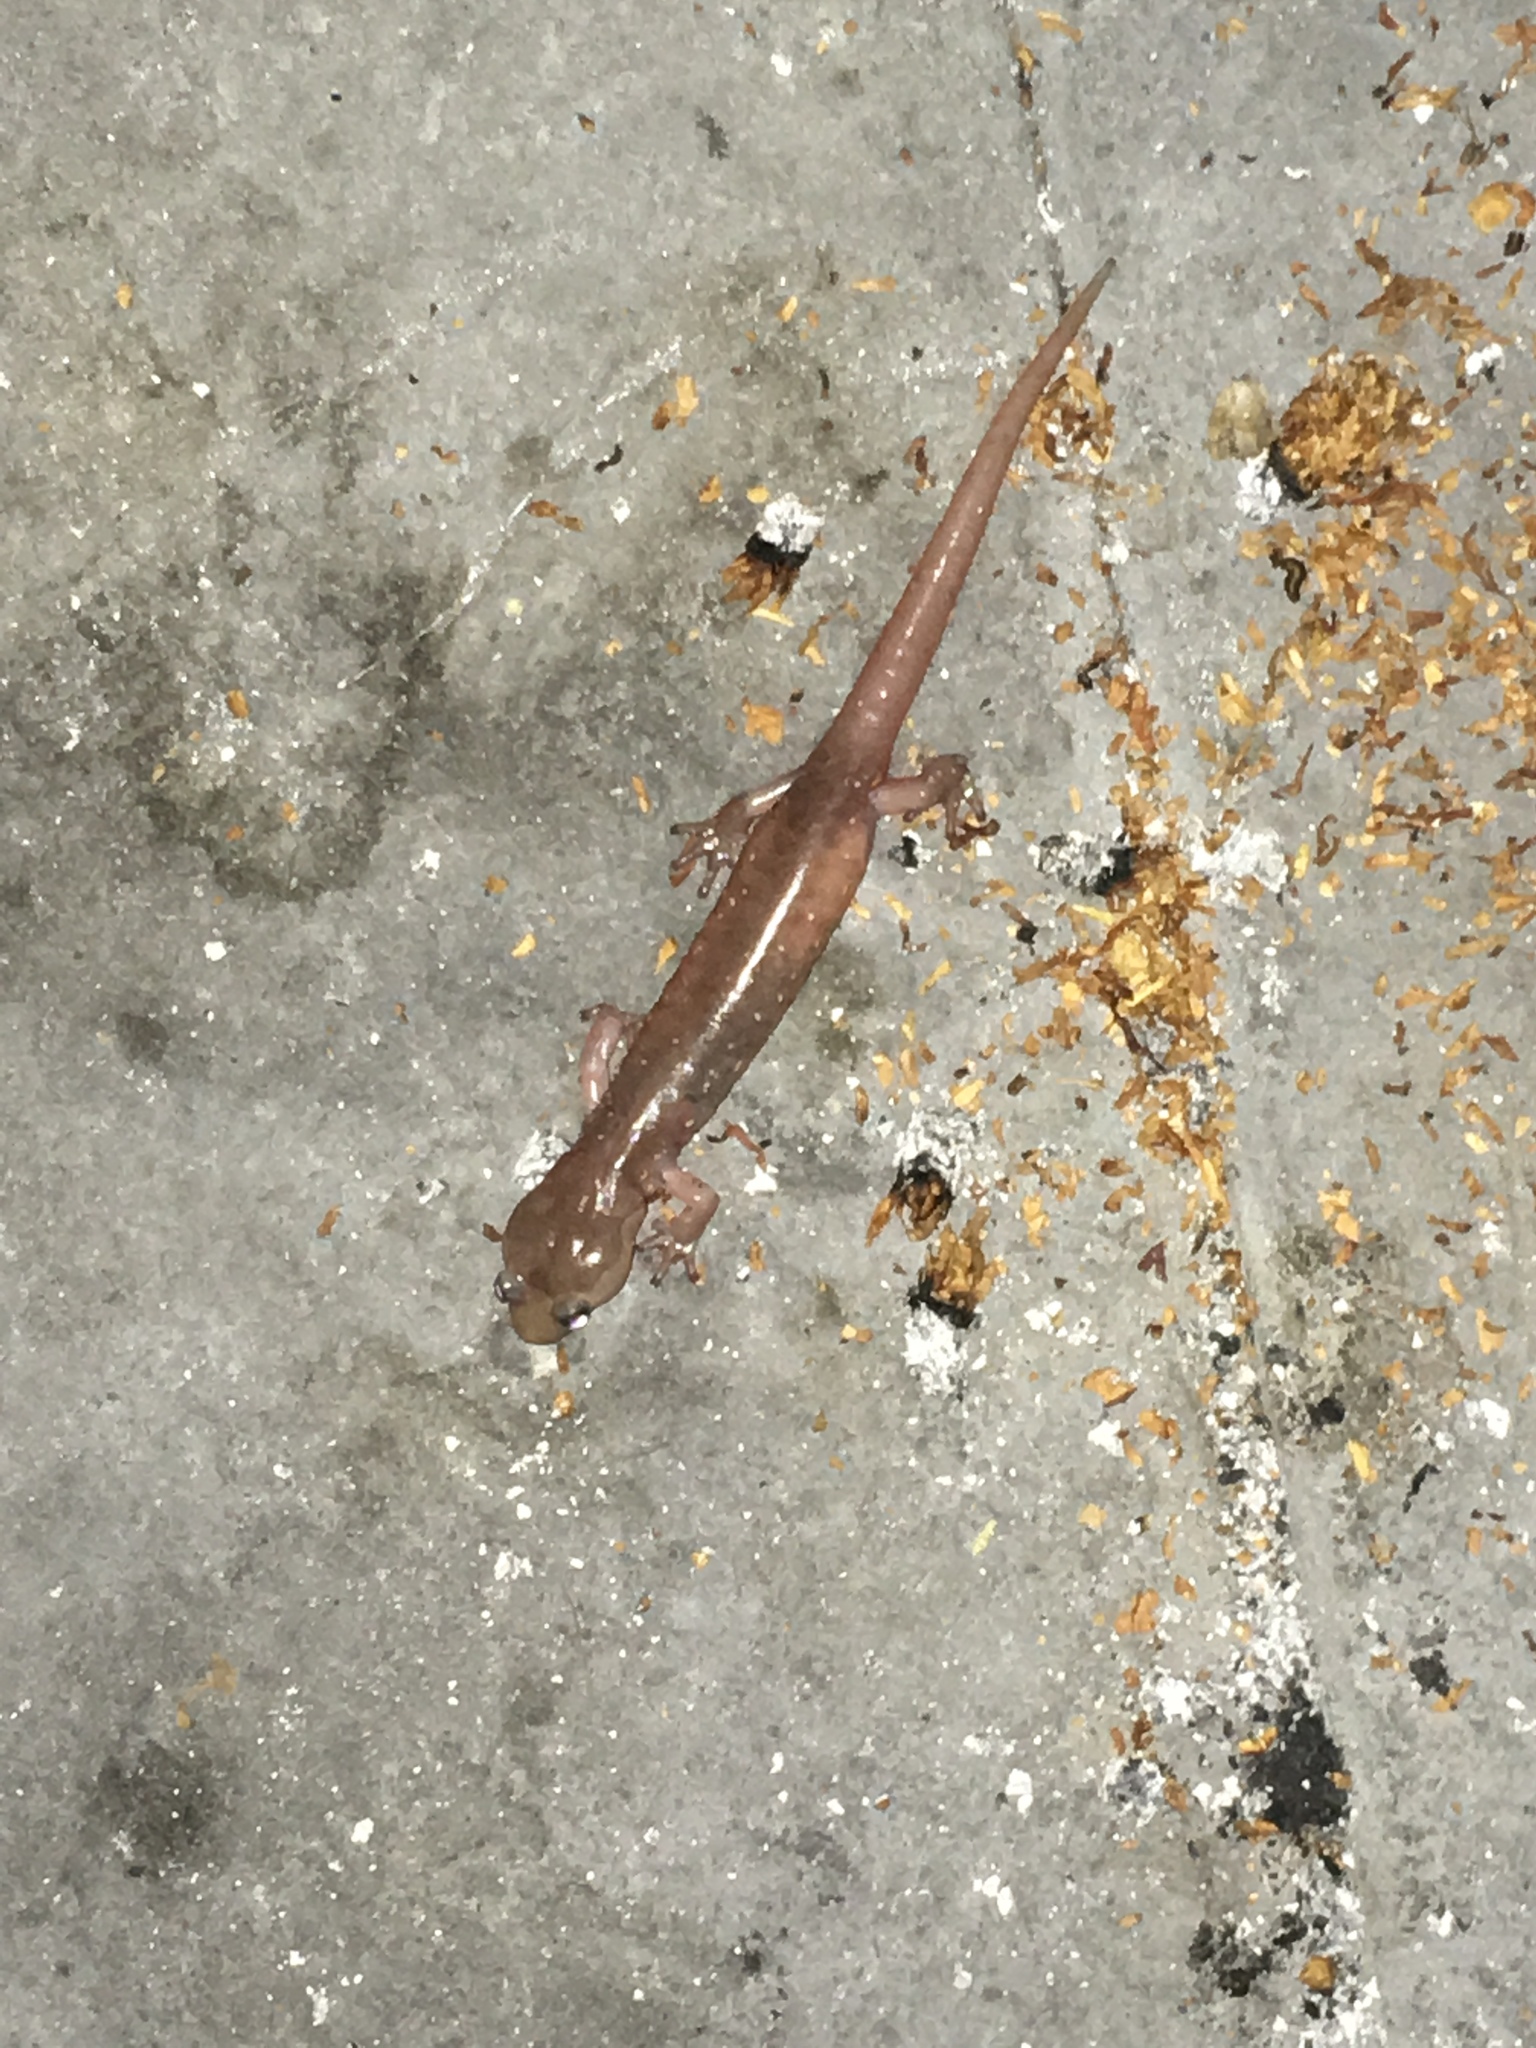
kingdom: Animalia
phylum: Chordata
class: Amphibia
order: Caudata
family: Plethodontidae
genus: Aneides
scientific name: Aneides lugubris
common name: Arboreal salamander
